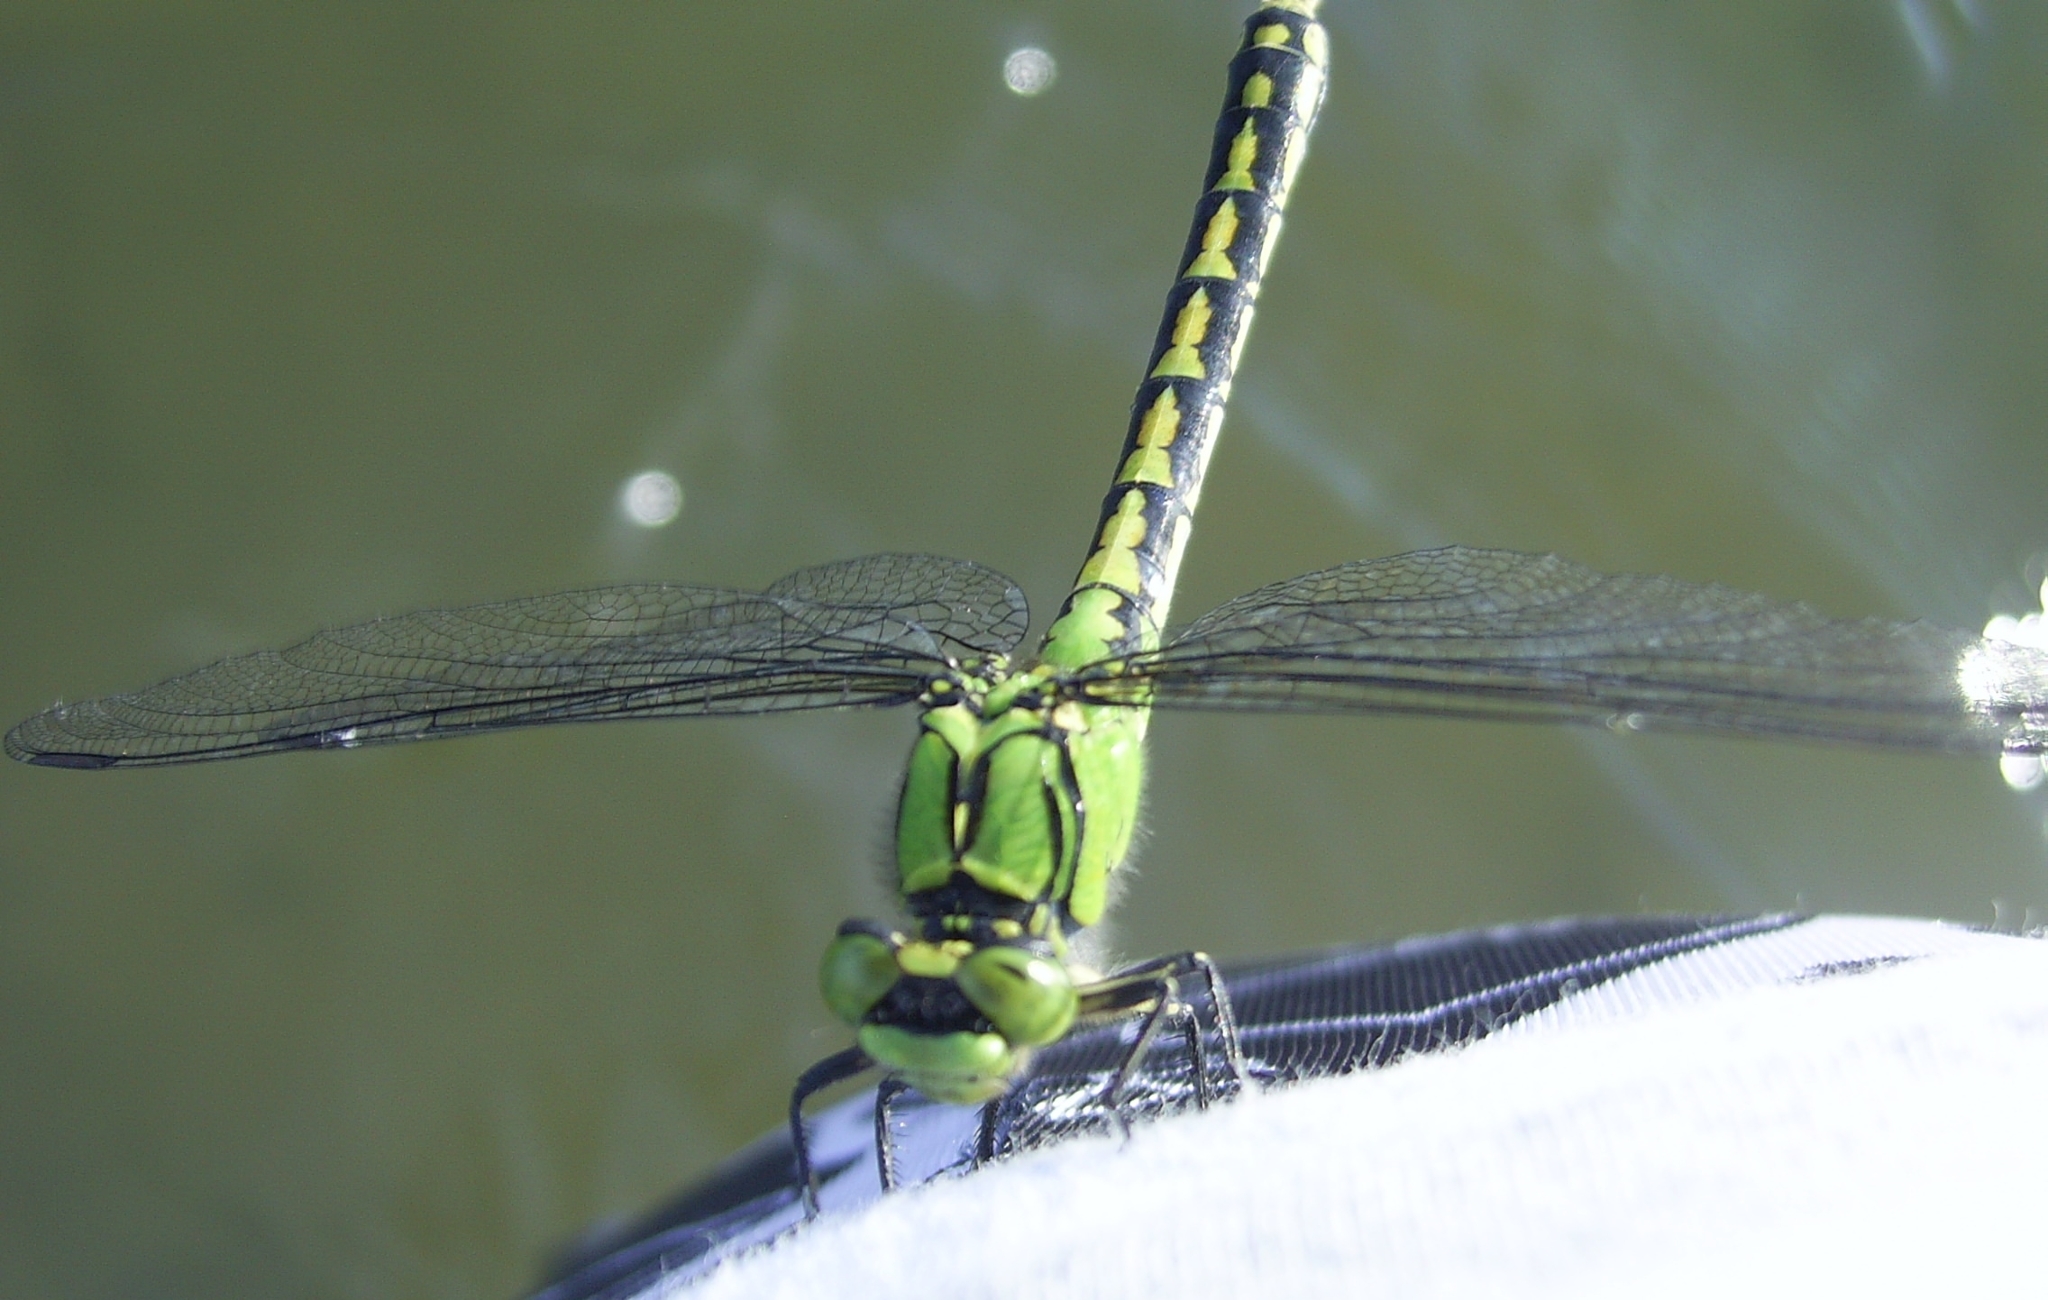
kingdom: Animalia
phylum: Arthropoda
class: Insecta
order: Odonata
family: Gomphidae
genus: Ophiogomphus
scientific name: Ophiogomphus obscurus
